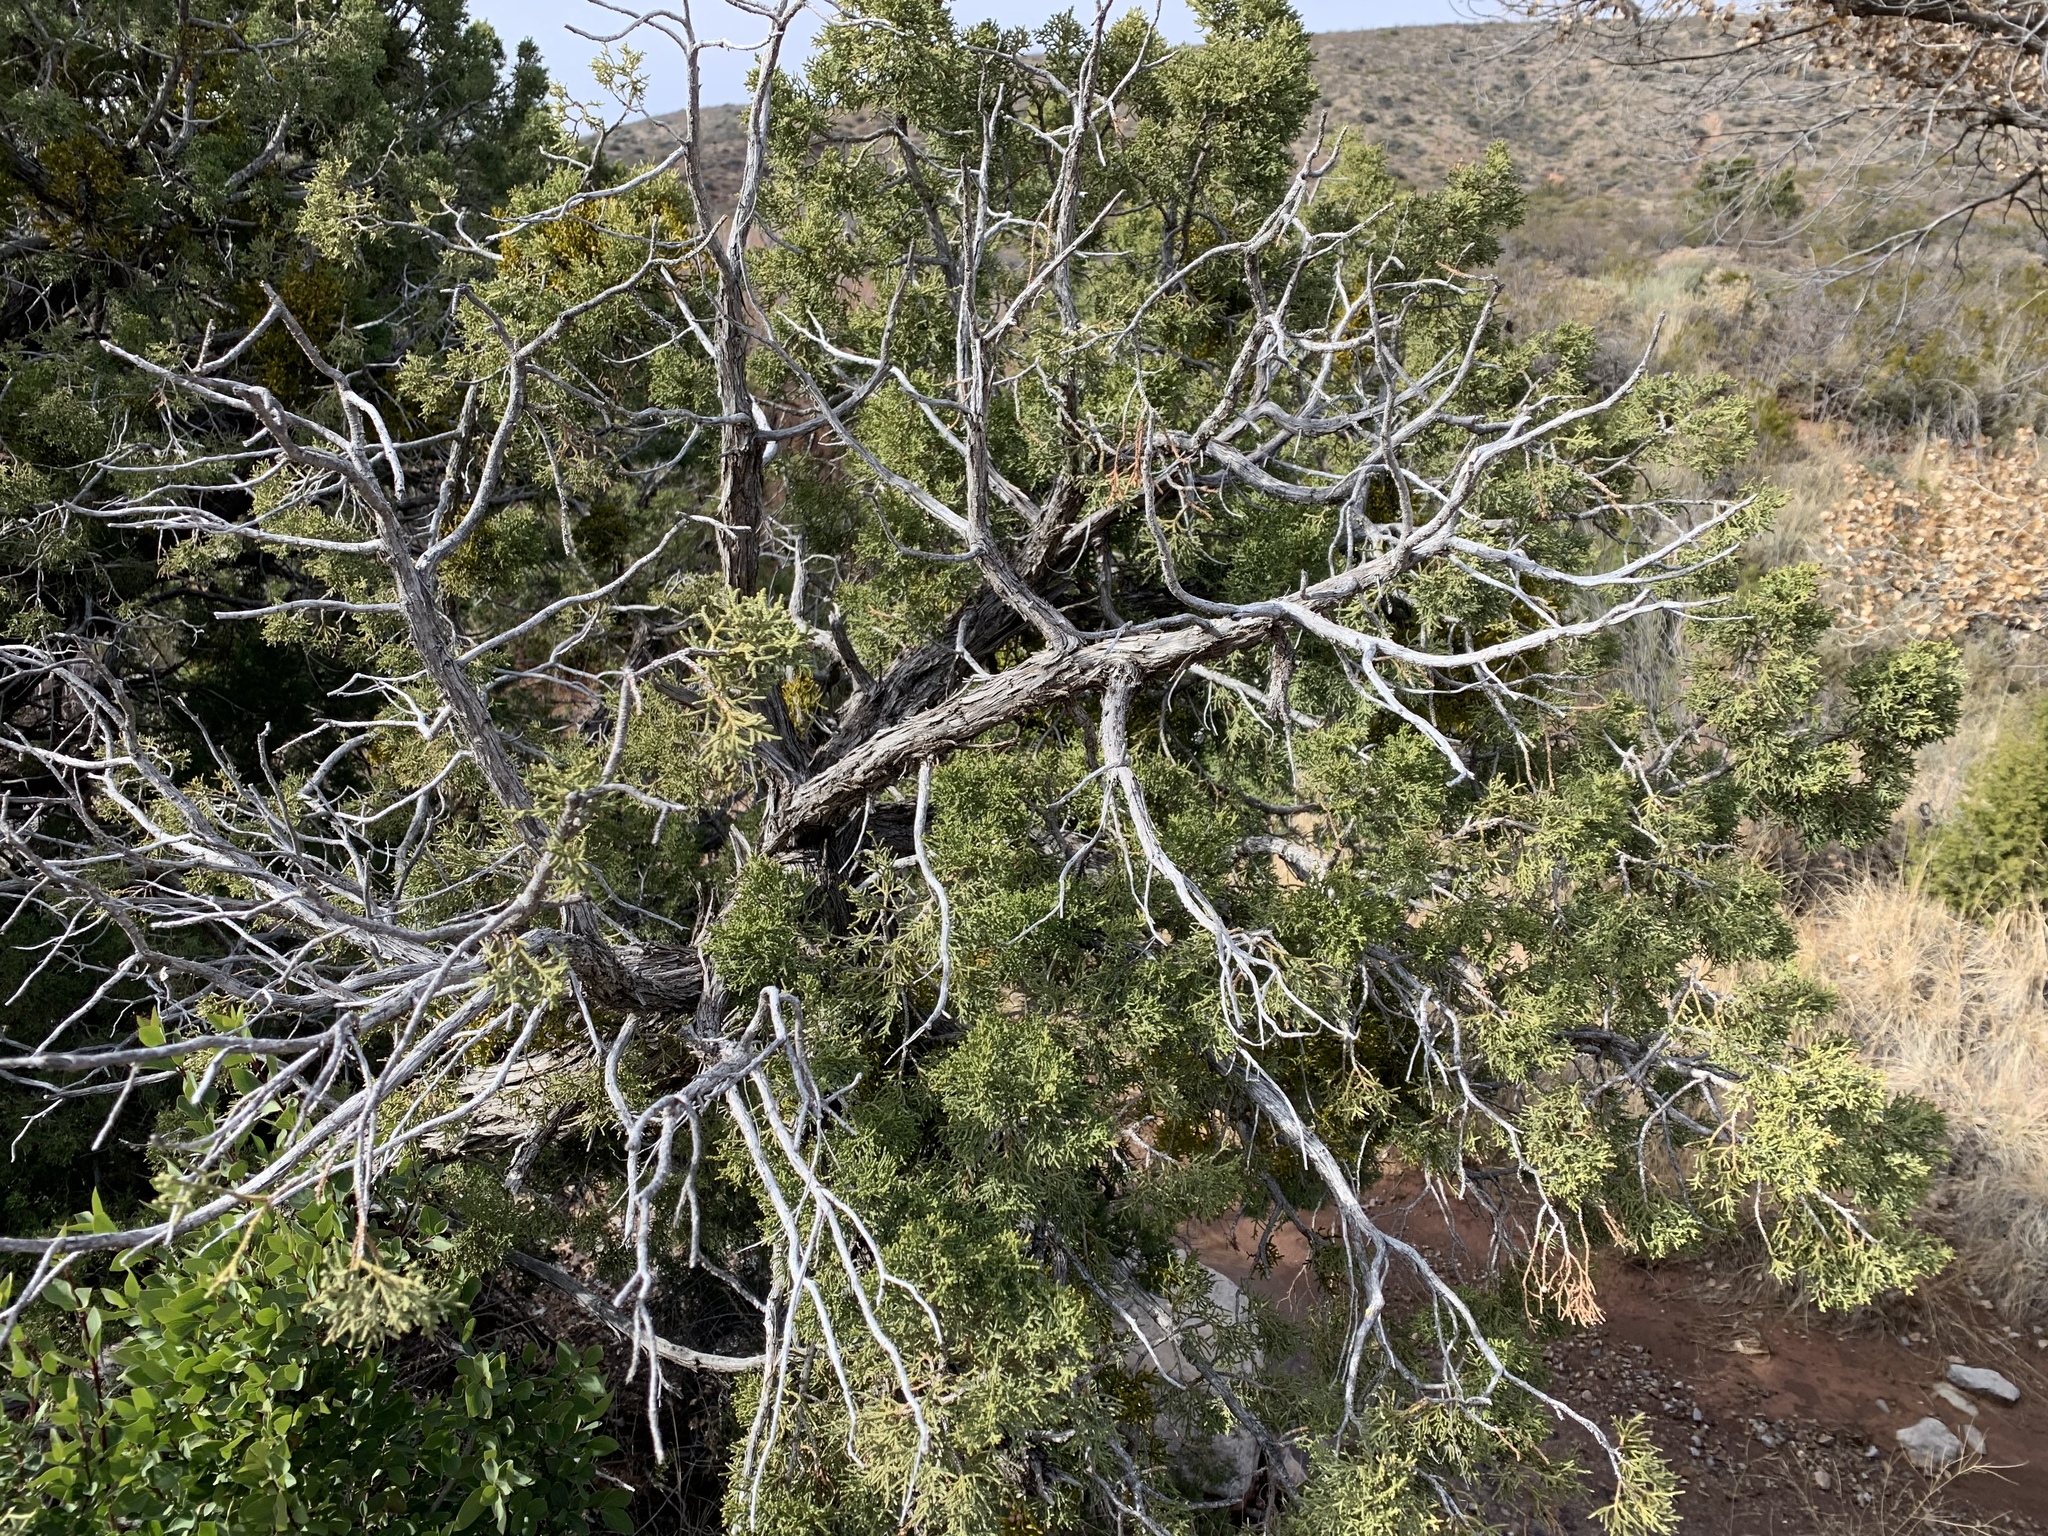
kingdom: Plantae
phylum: Tracheophyta
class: Pinopsida
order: Pinales
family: Cupressaceae
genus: Juniperus
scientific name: Juniperus monosperma
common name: One-seed juniper
